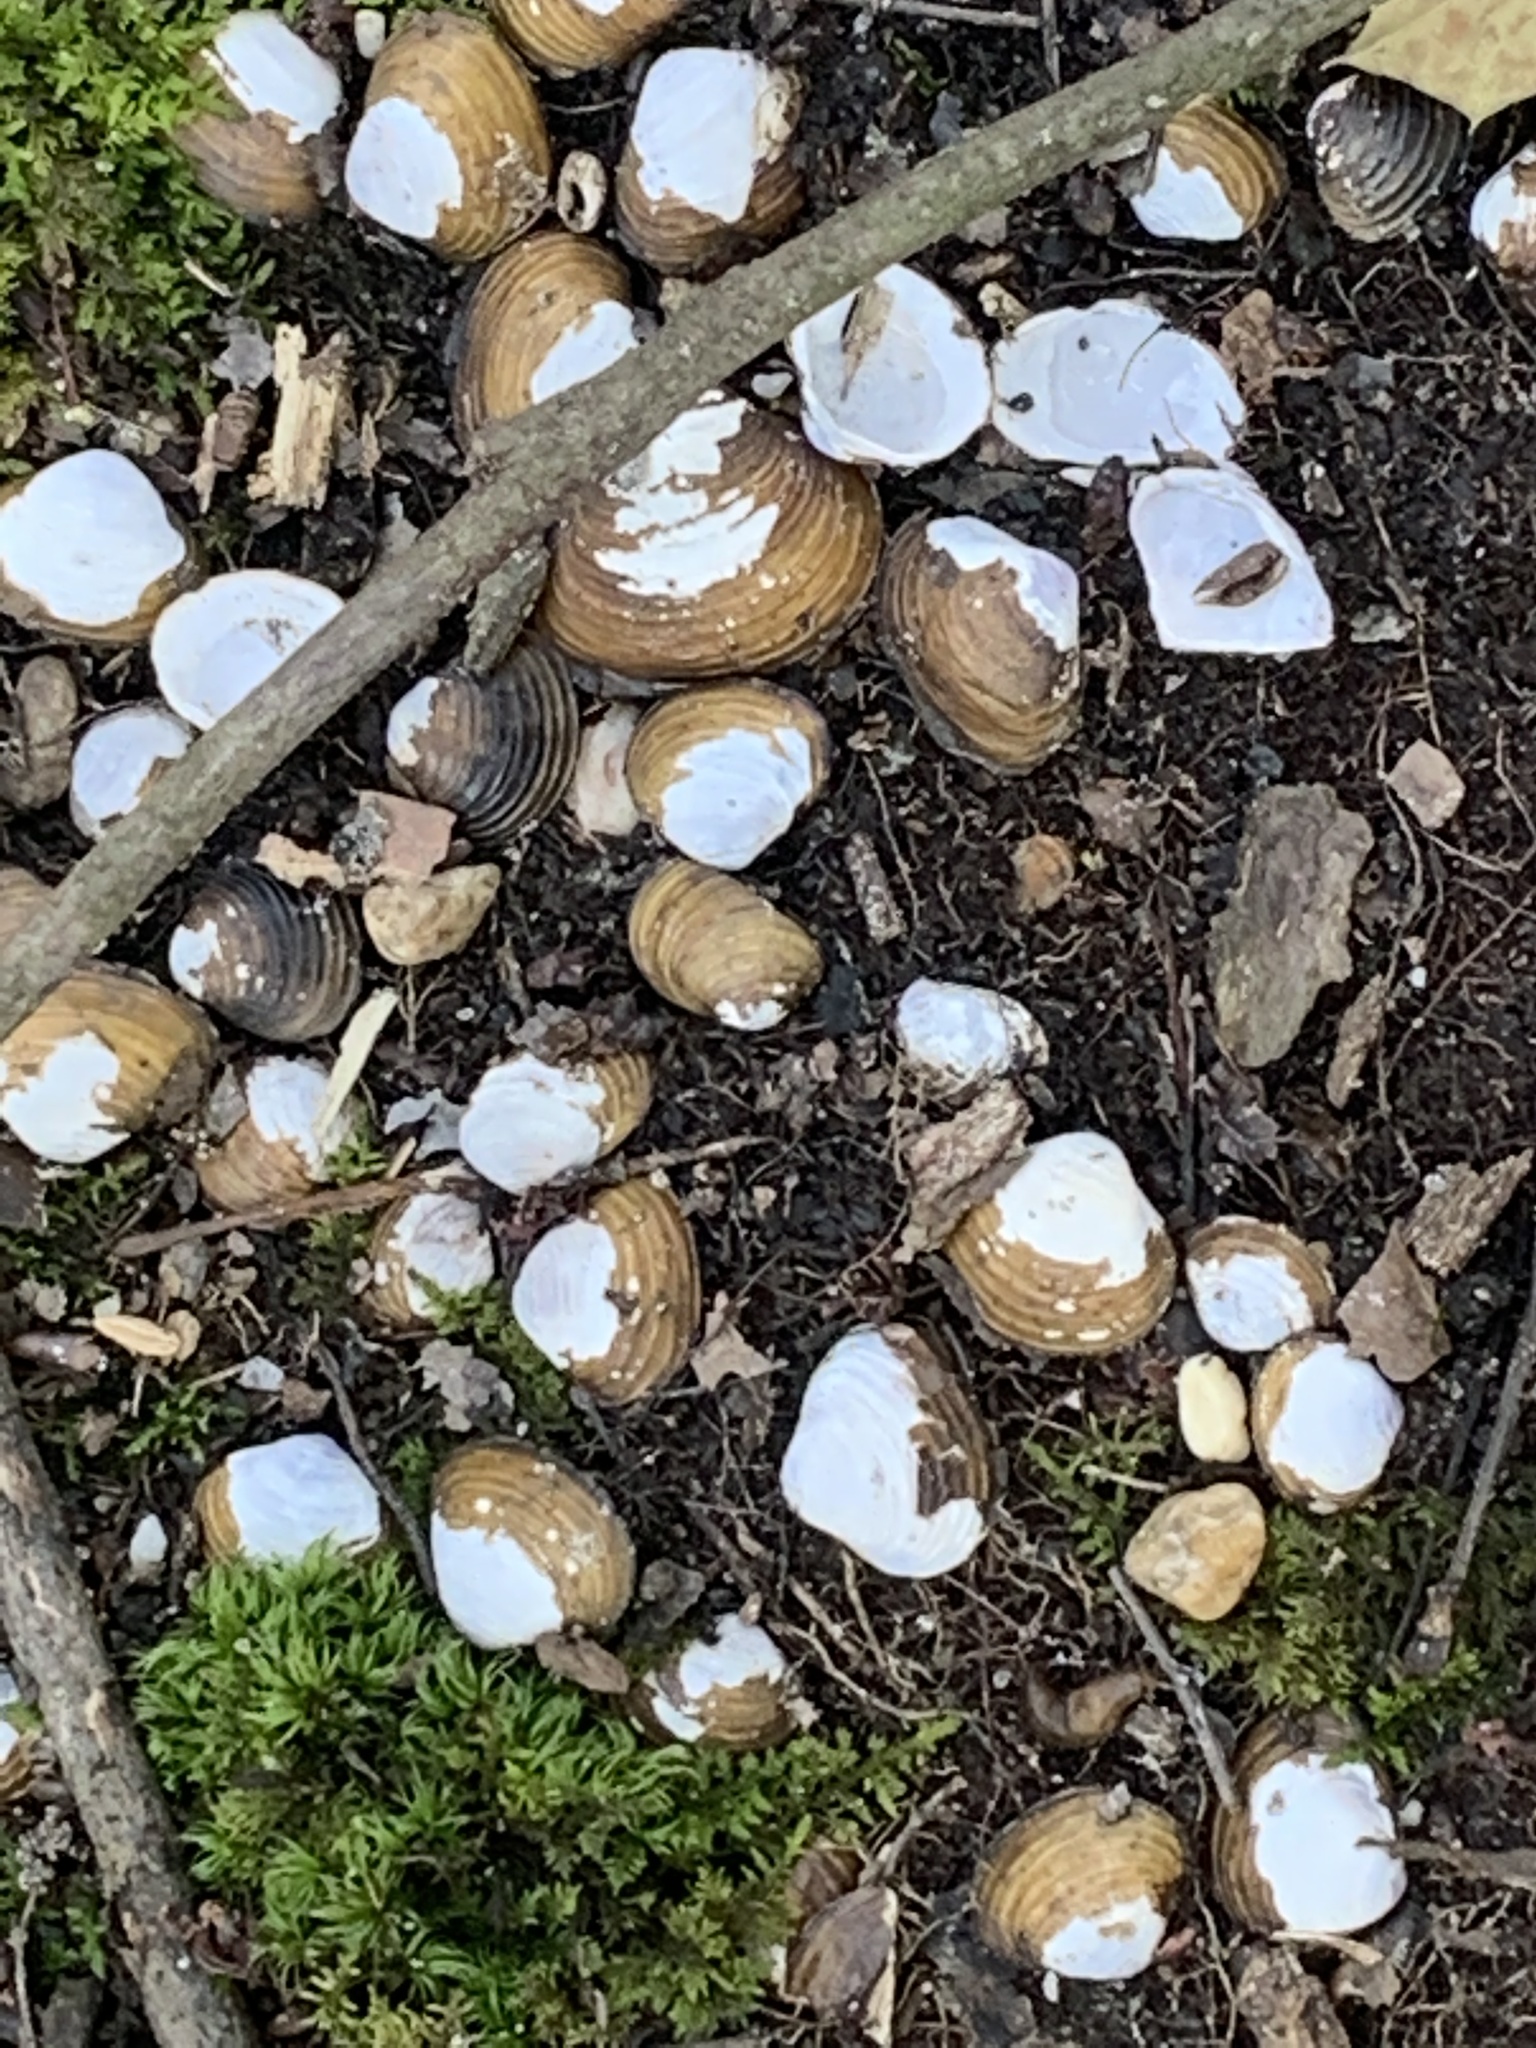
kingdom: Animalia
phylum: Mollusca
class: Bivalvia
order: Venerida
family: Cyrenidae
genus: Corbicula
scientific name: Corbicula fluminea
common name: Asian clam
